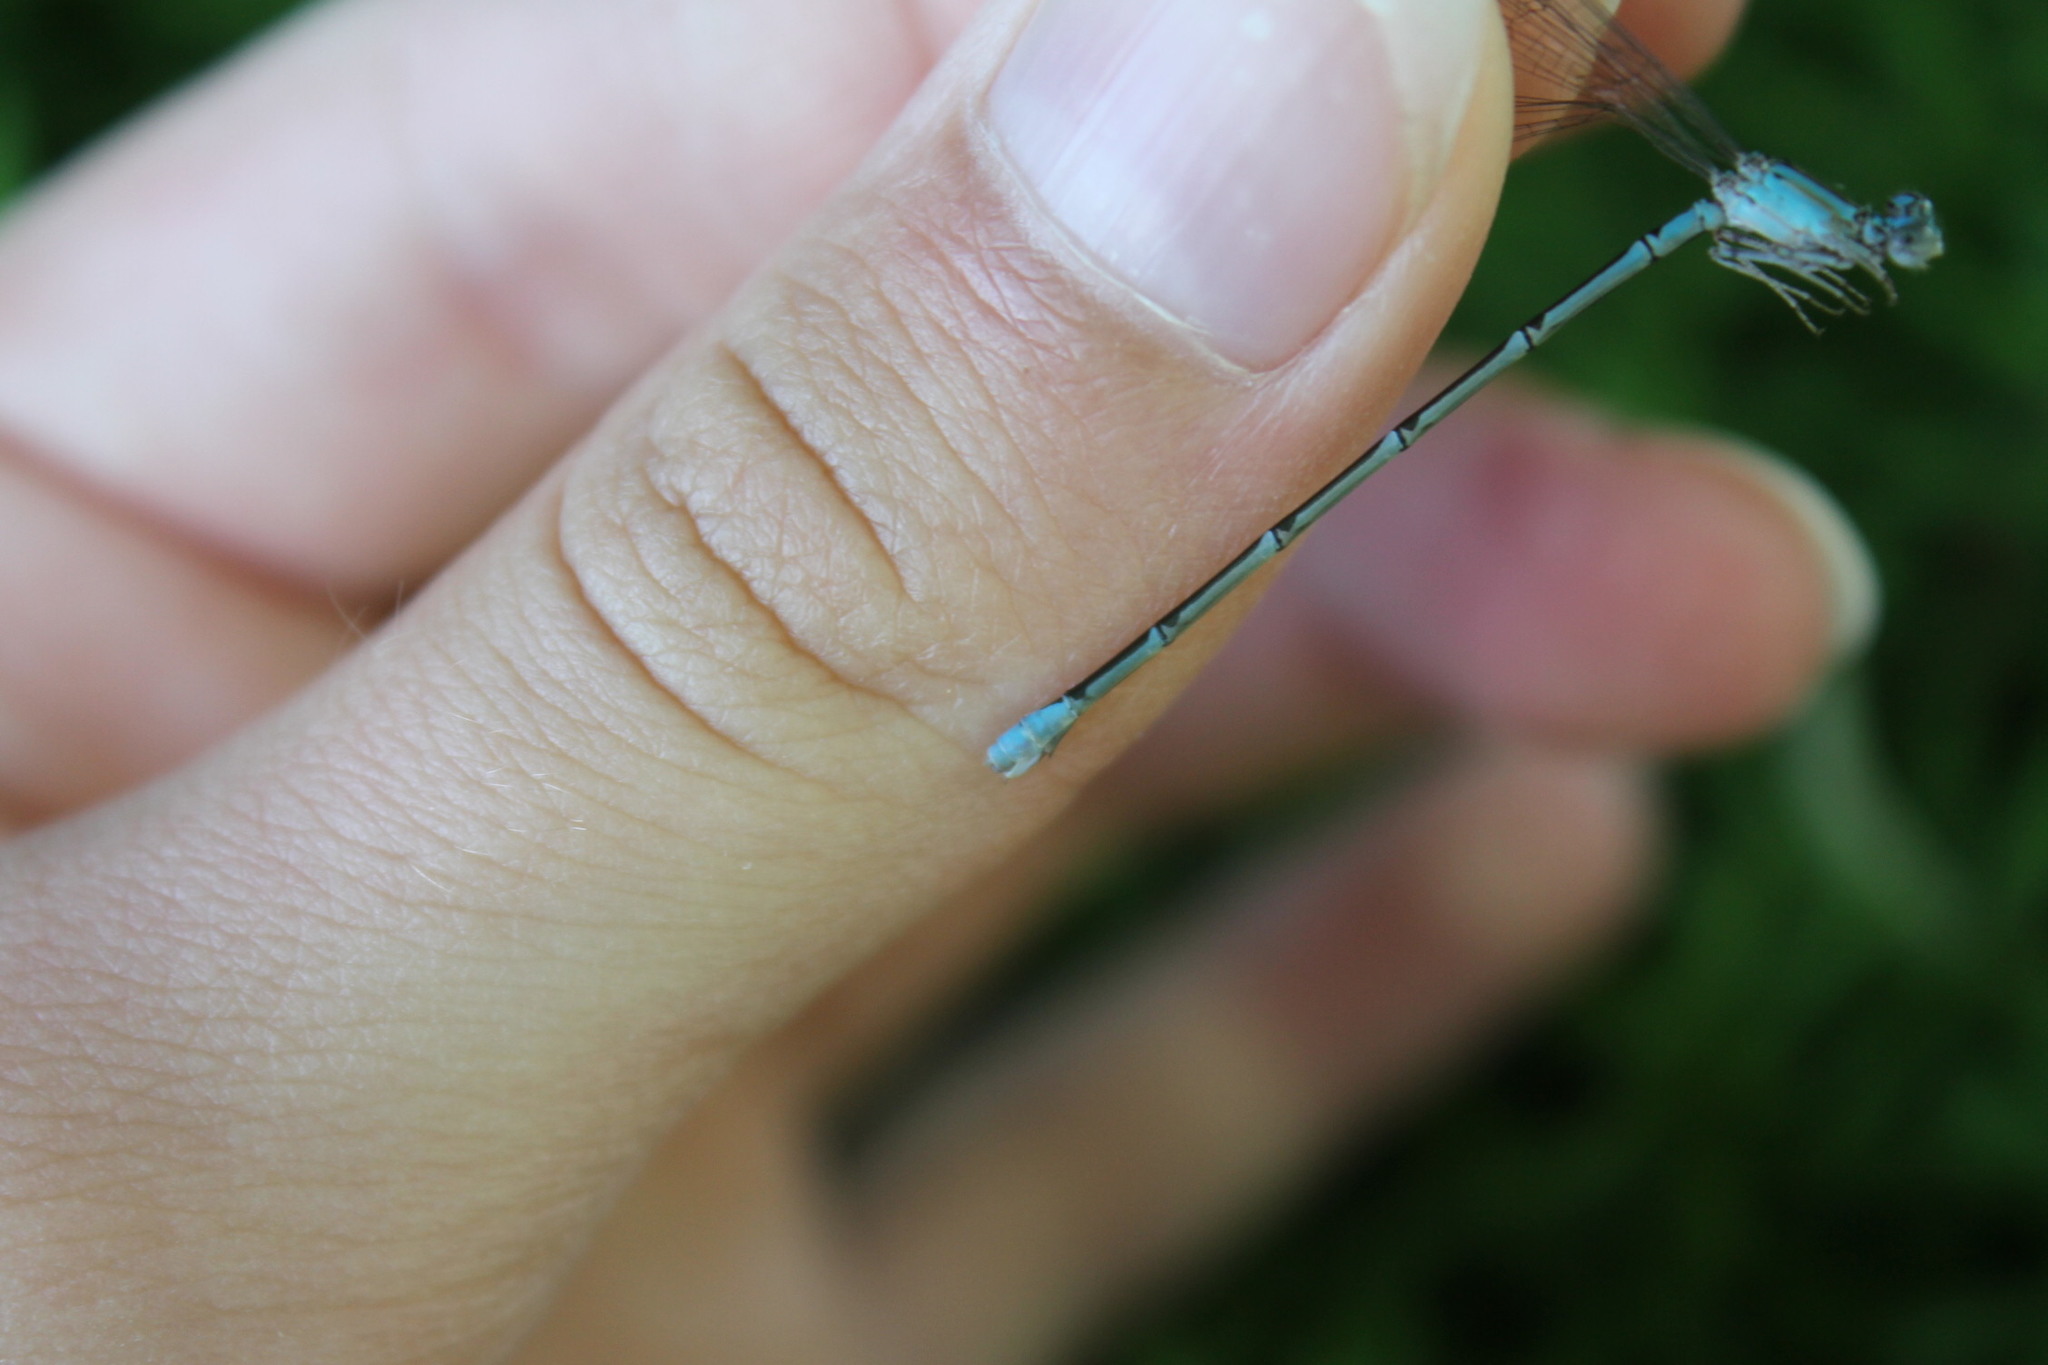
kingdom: Animalia
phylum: Arthropoda
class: Insecta
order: Odonata
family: Coenagrionidae
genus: Ischnura
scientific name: Ischnura verticalis
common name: Eastern forktail
